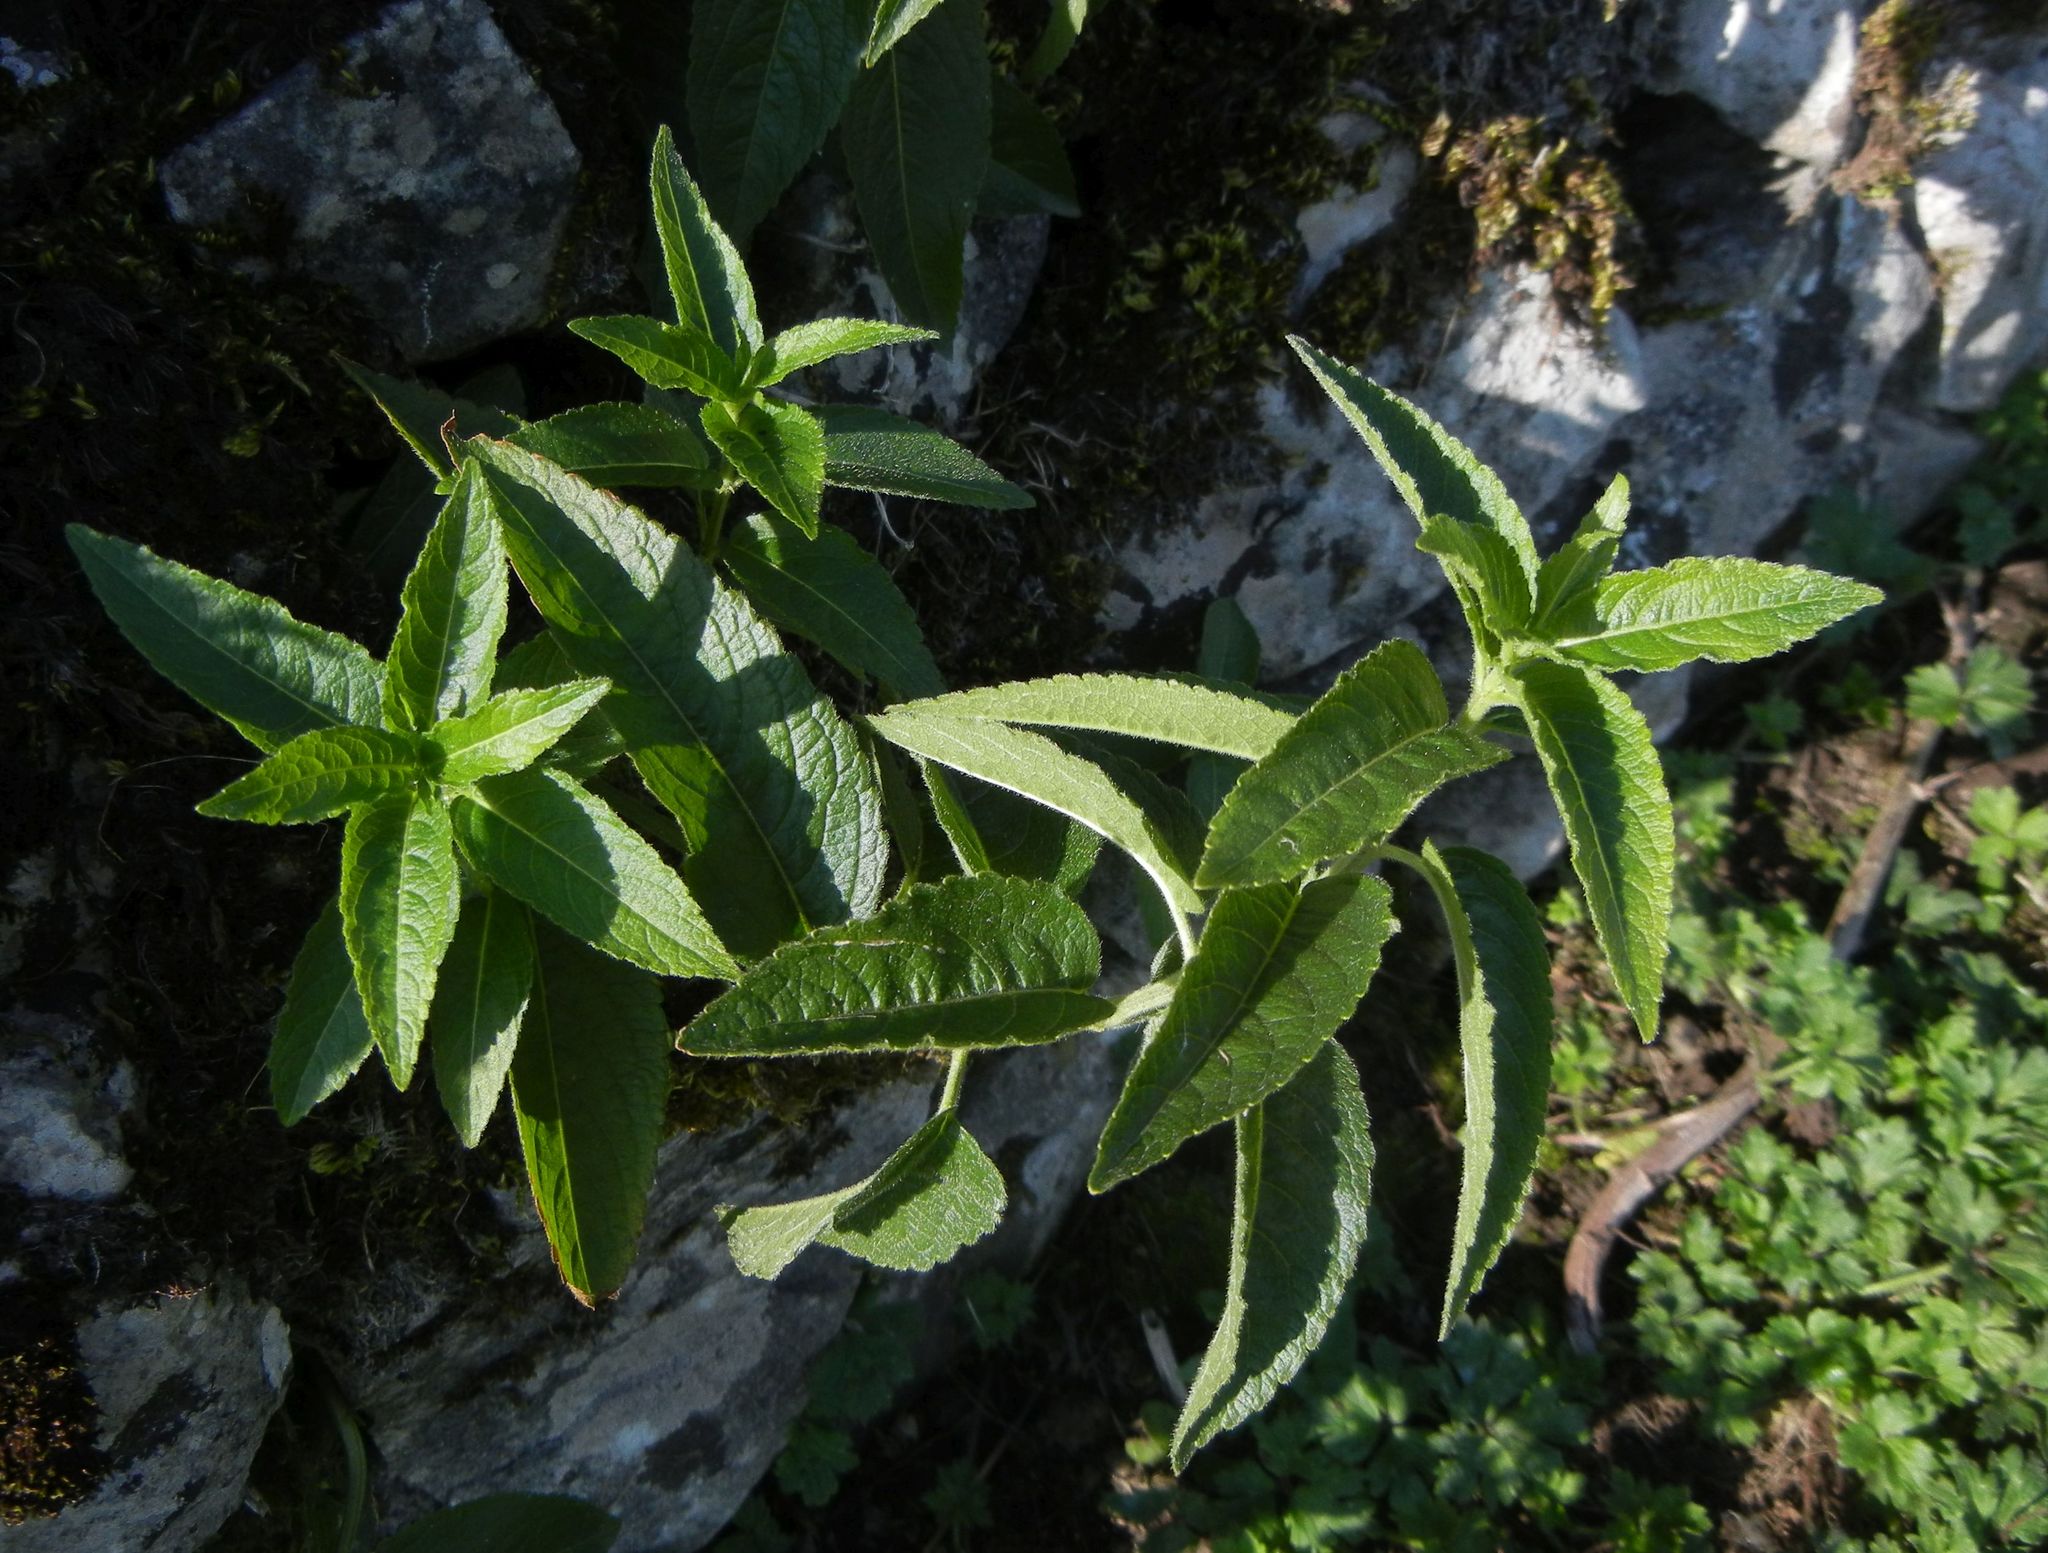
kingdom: Plantae
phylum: Tracheophyta
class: Magnoliopsida
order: Malpighiales
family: Euphorbiaceae
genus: Mercurialis
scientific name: Mercurialis perennis
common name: Dog mercury
